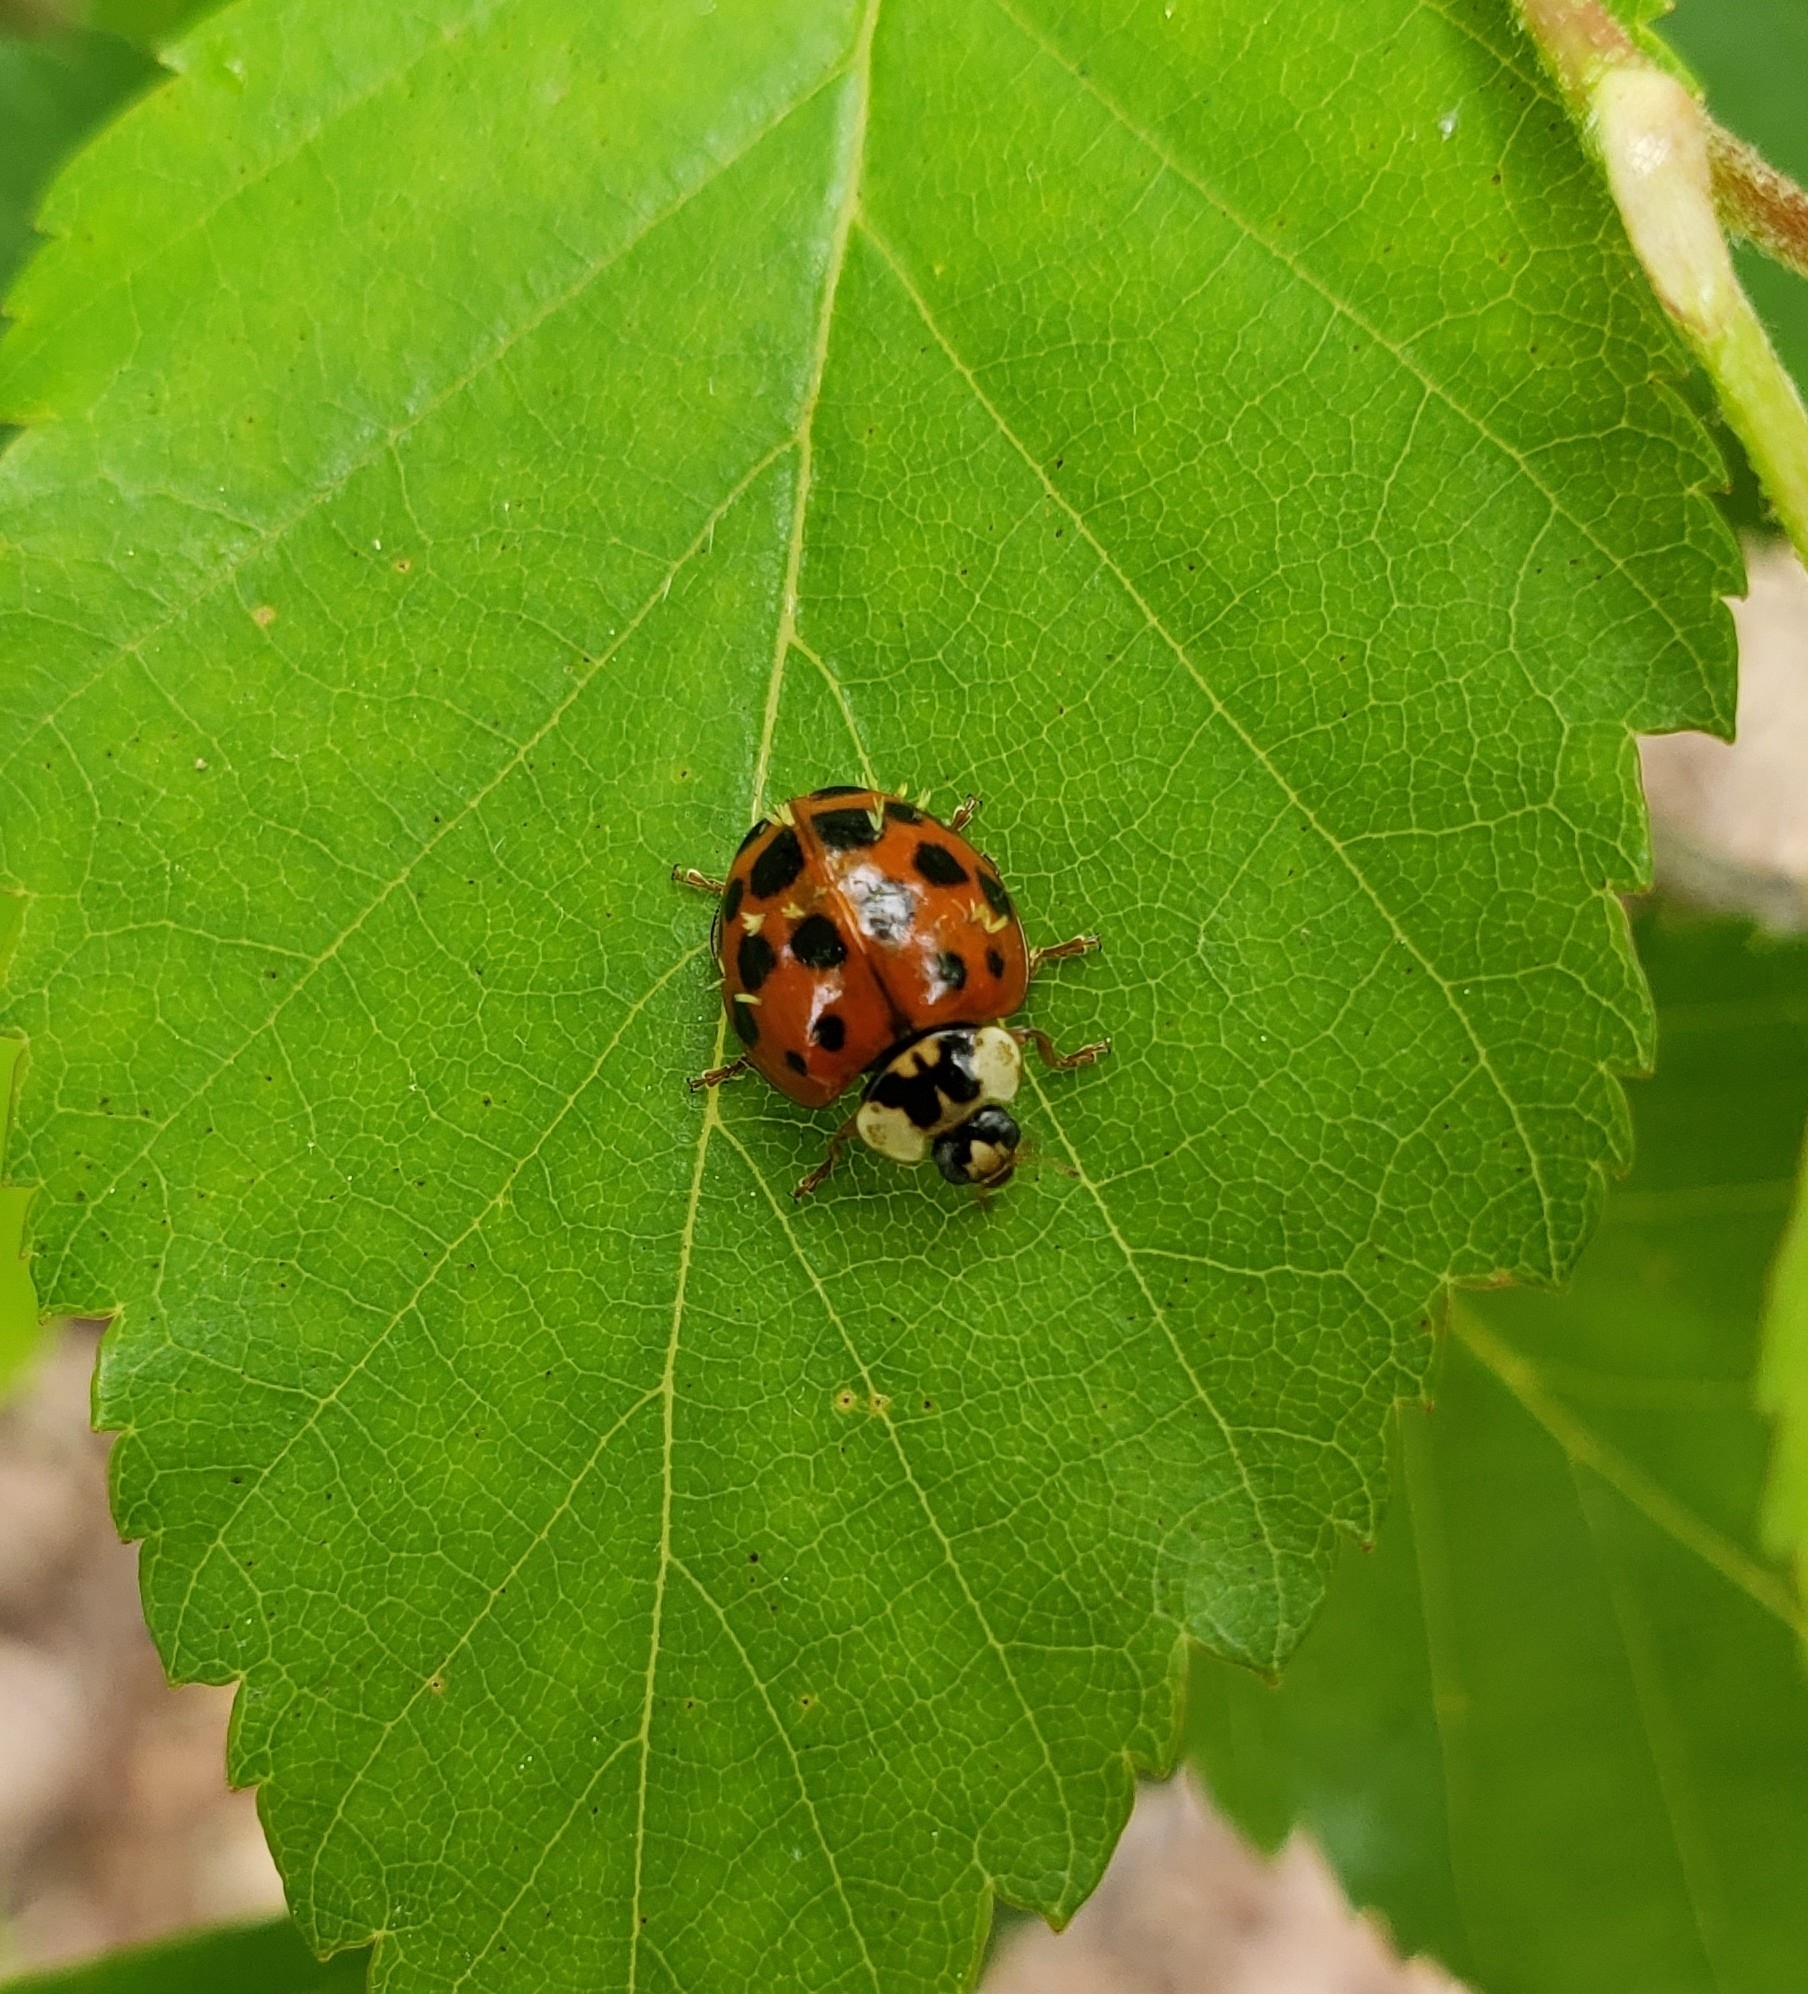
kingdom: Animalia
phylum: Arthropoda
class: Insecta
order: Coleoptera
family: Coccinellidae
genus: Harmonia
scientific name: Harmonia axyridis
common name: Harlequin ladybird
